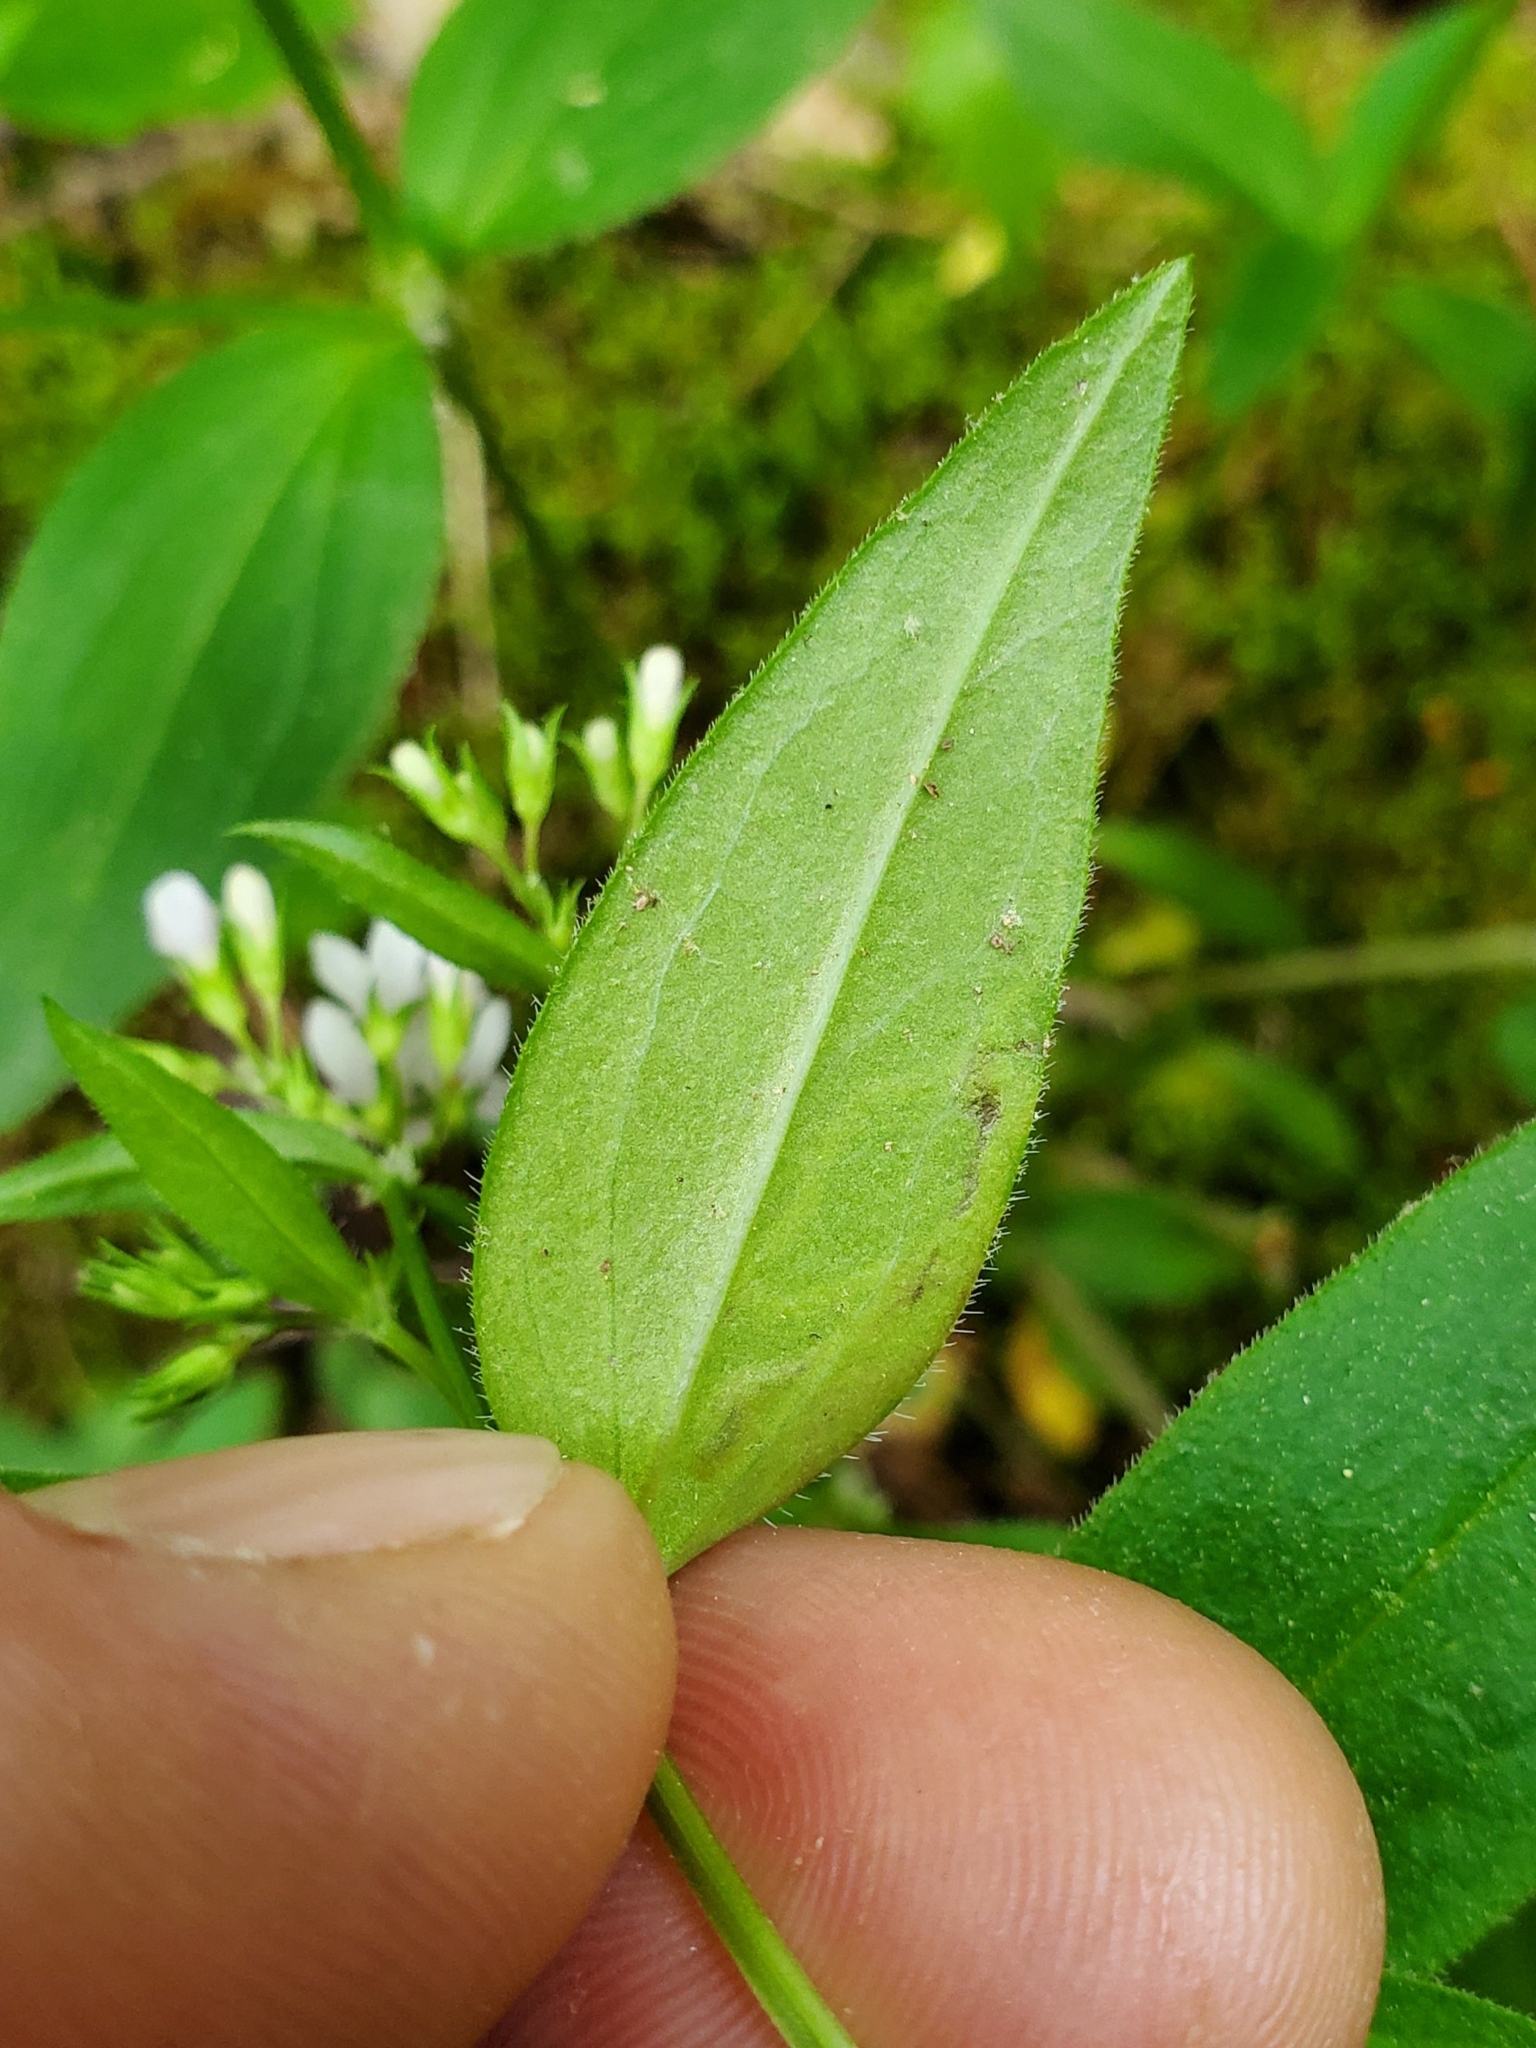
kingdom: Plantae
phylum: Tracheophyta
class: Magnoliopsida
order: Gentianales
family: Rubiaceae
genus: Houstonia
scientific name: Houstonia purpurea
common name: Summer bluet
